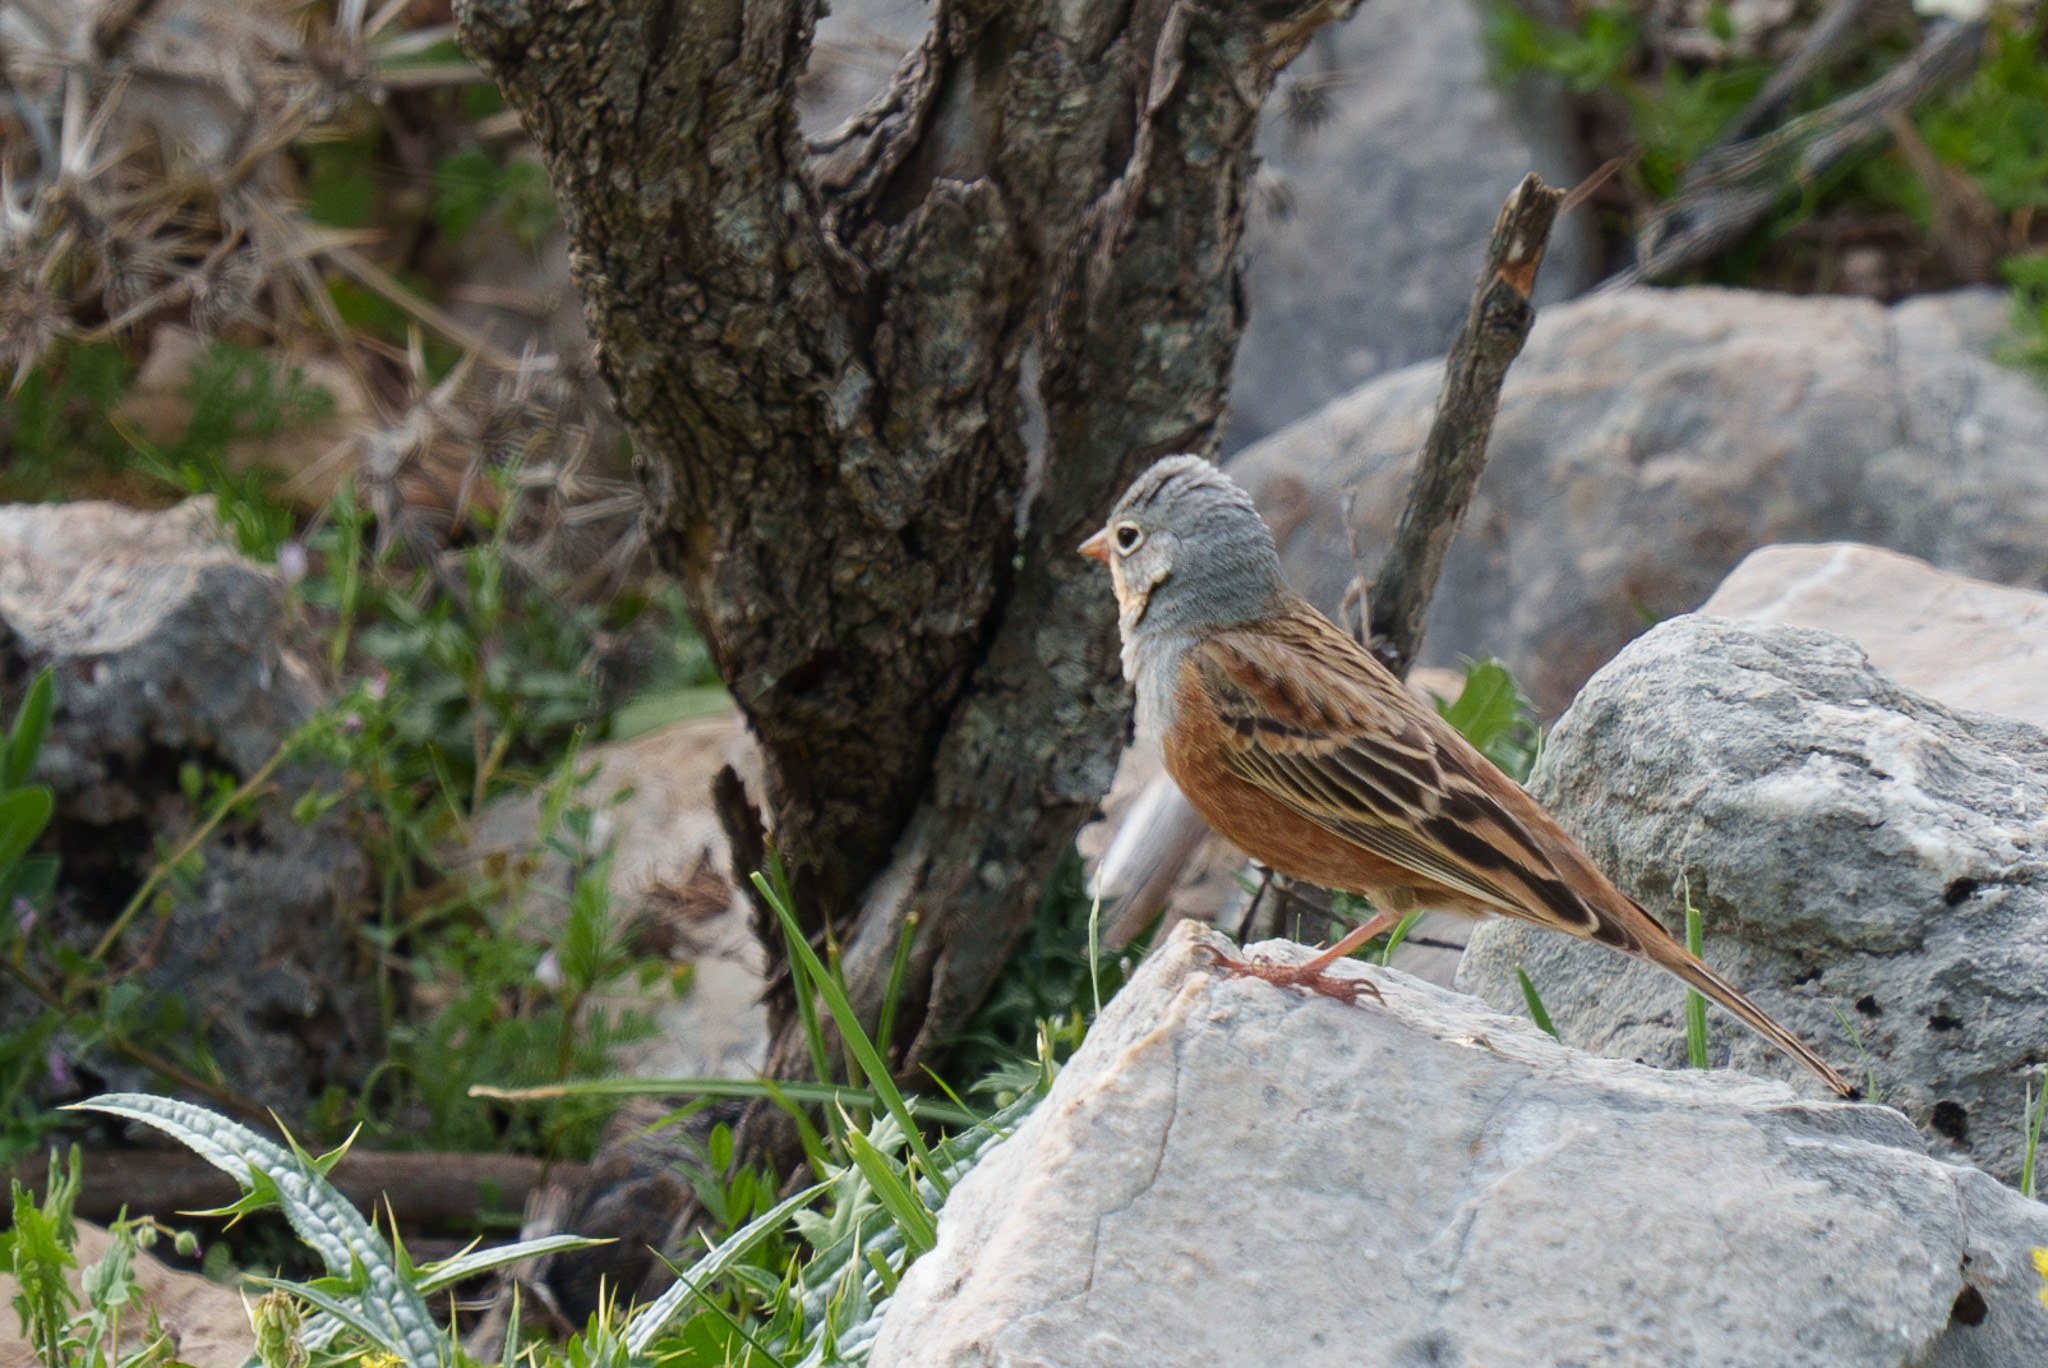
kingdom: Animalia
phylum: Chordata
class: Aves
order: Passeriformes
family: Emberizidae
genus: Emberiza
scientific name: Emberiza caesia
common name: Cretzschmar's bunting
